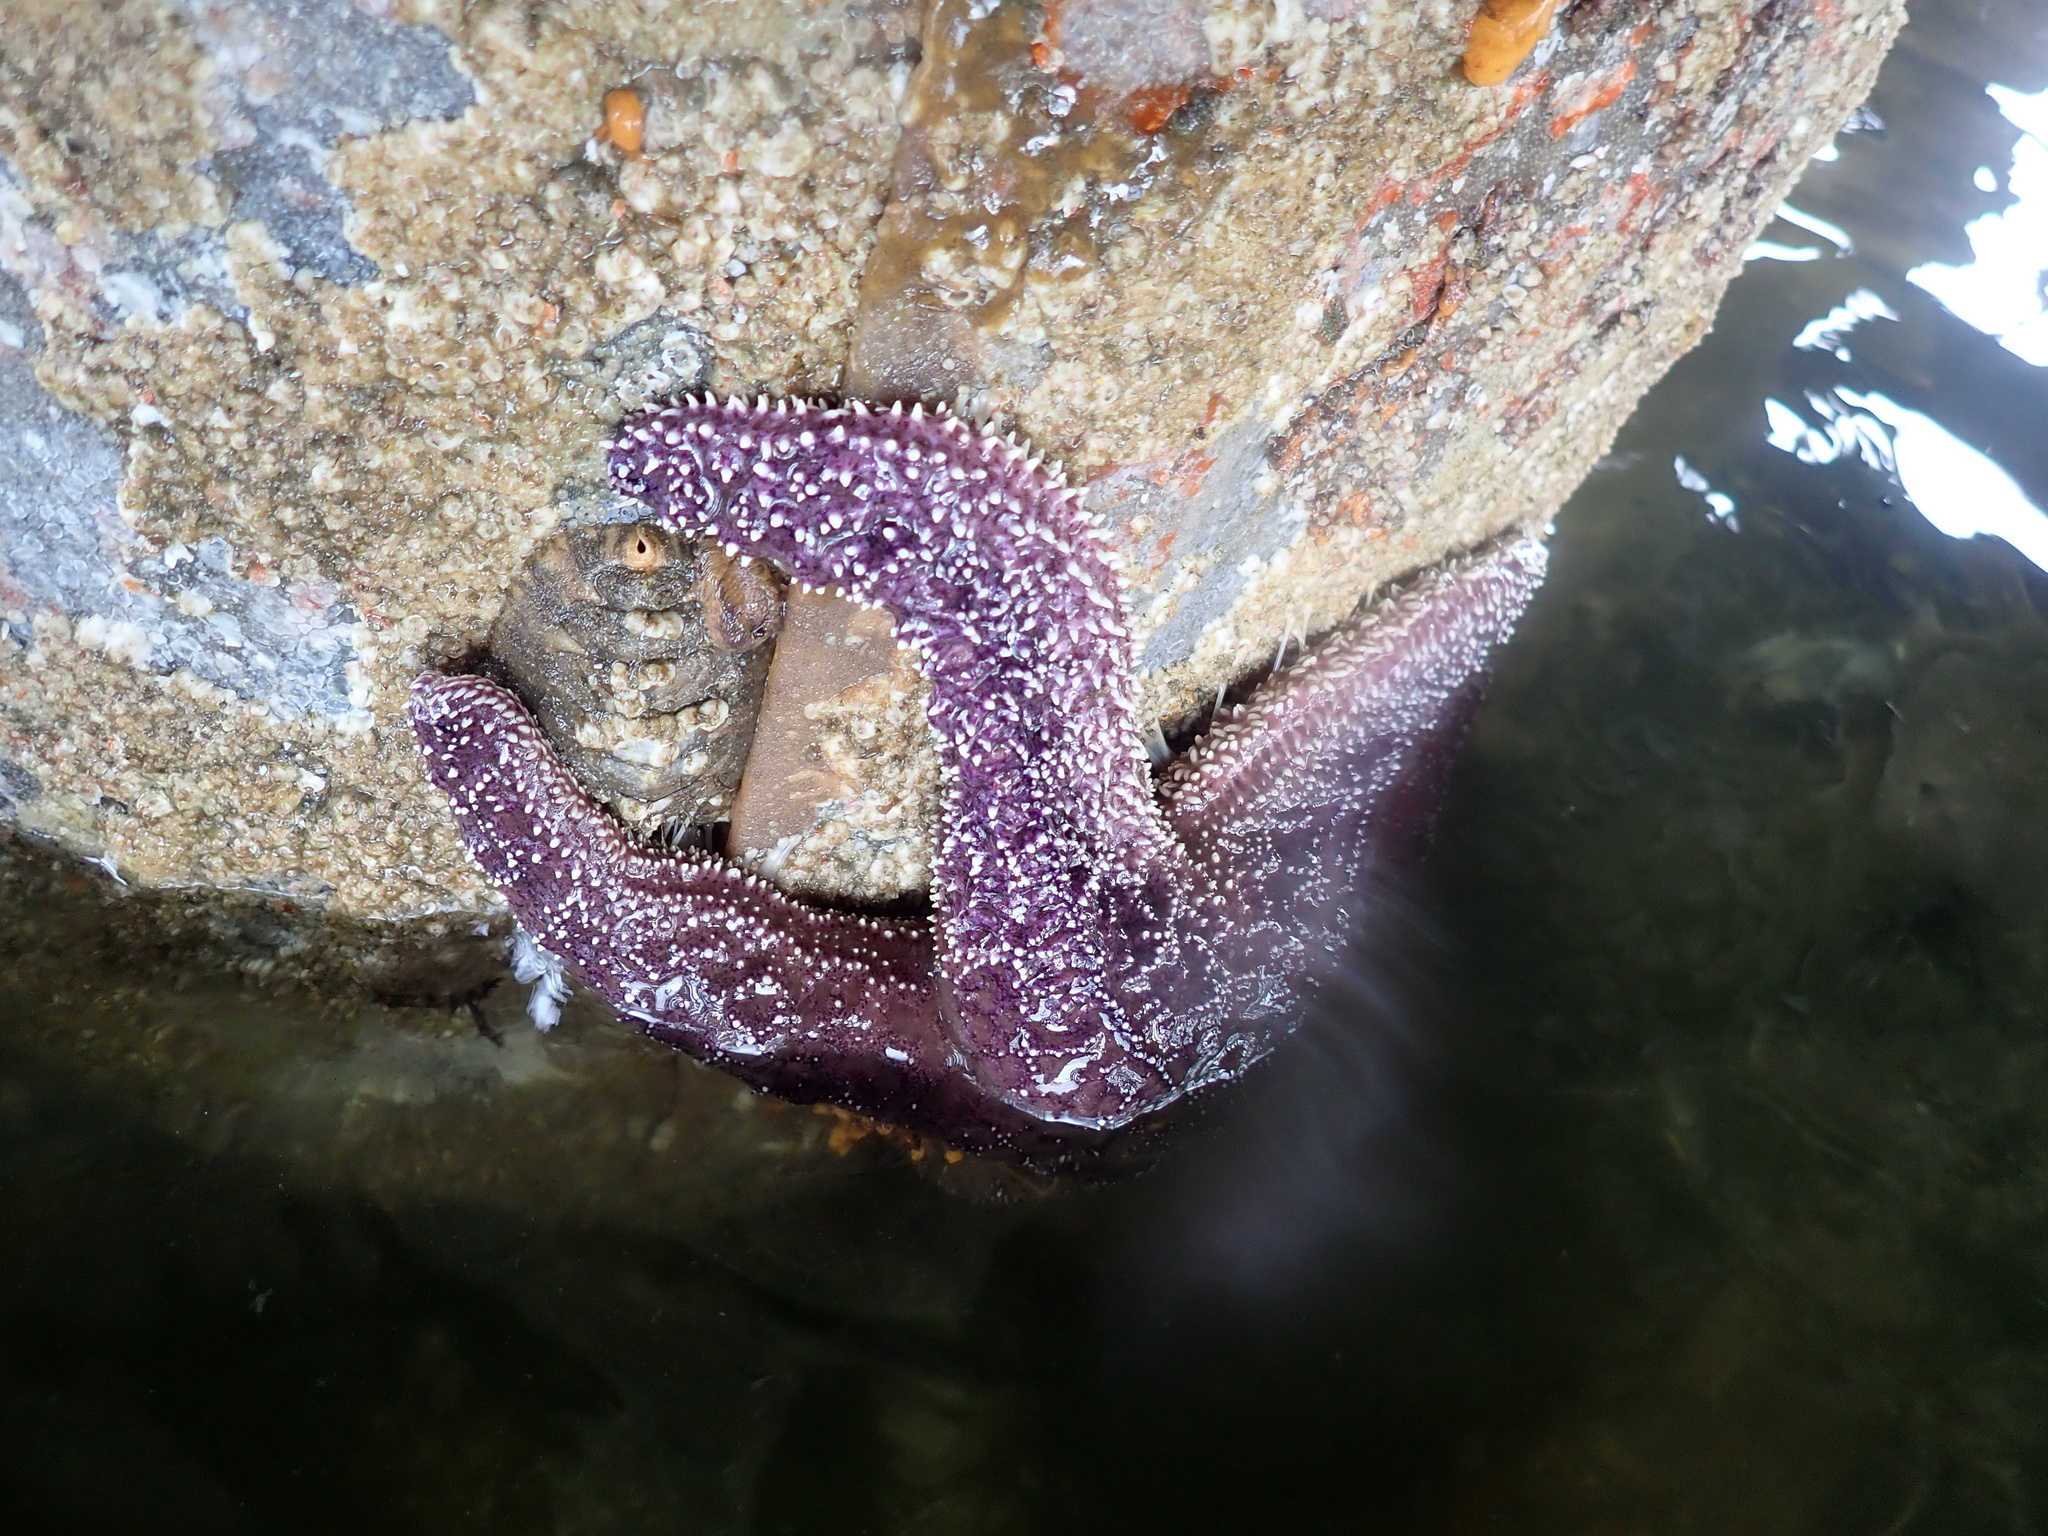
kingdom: Animalia
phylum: Echinodermata
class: Asteroidea
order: Forcipulatida
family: Asteriidae
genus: Pisaster
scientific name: Pisaster ochraceus
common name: Ochre stars
